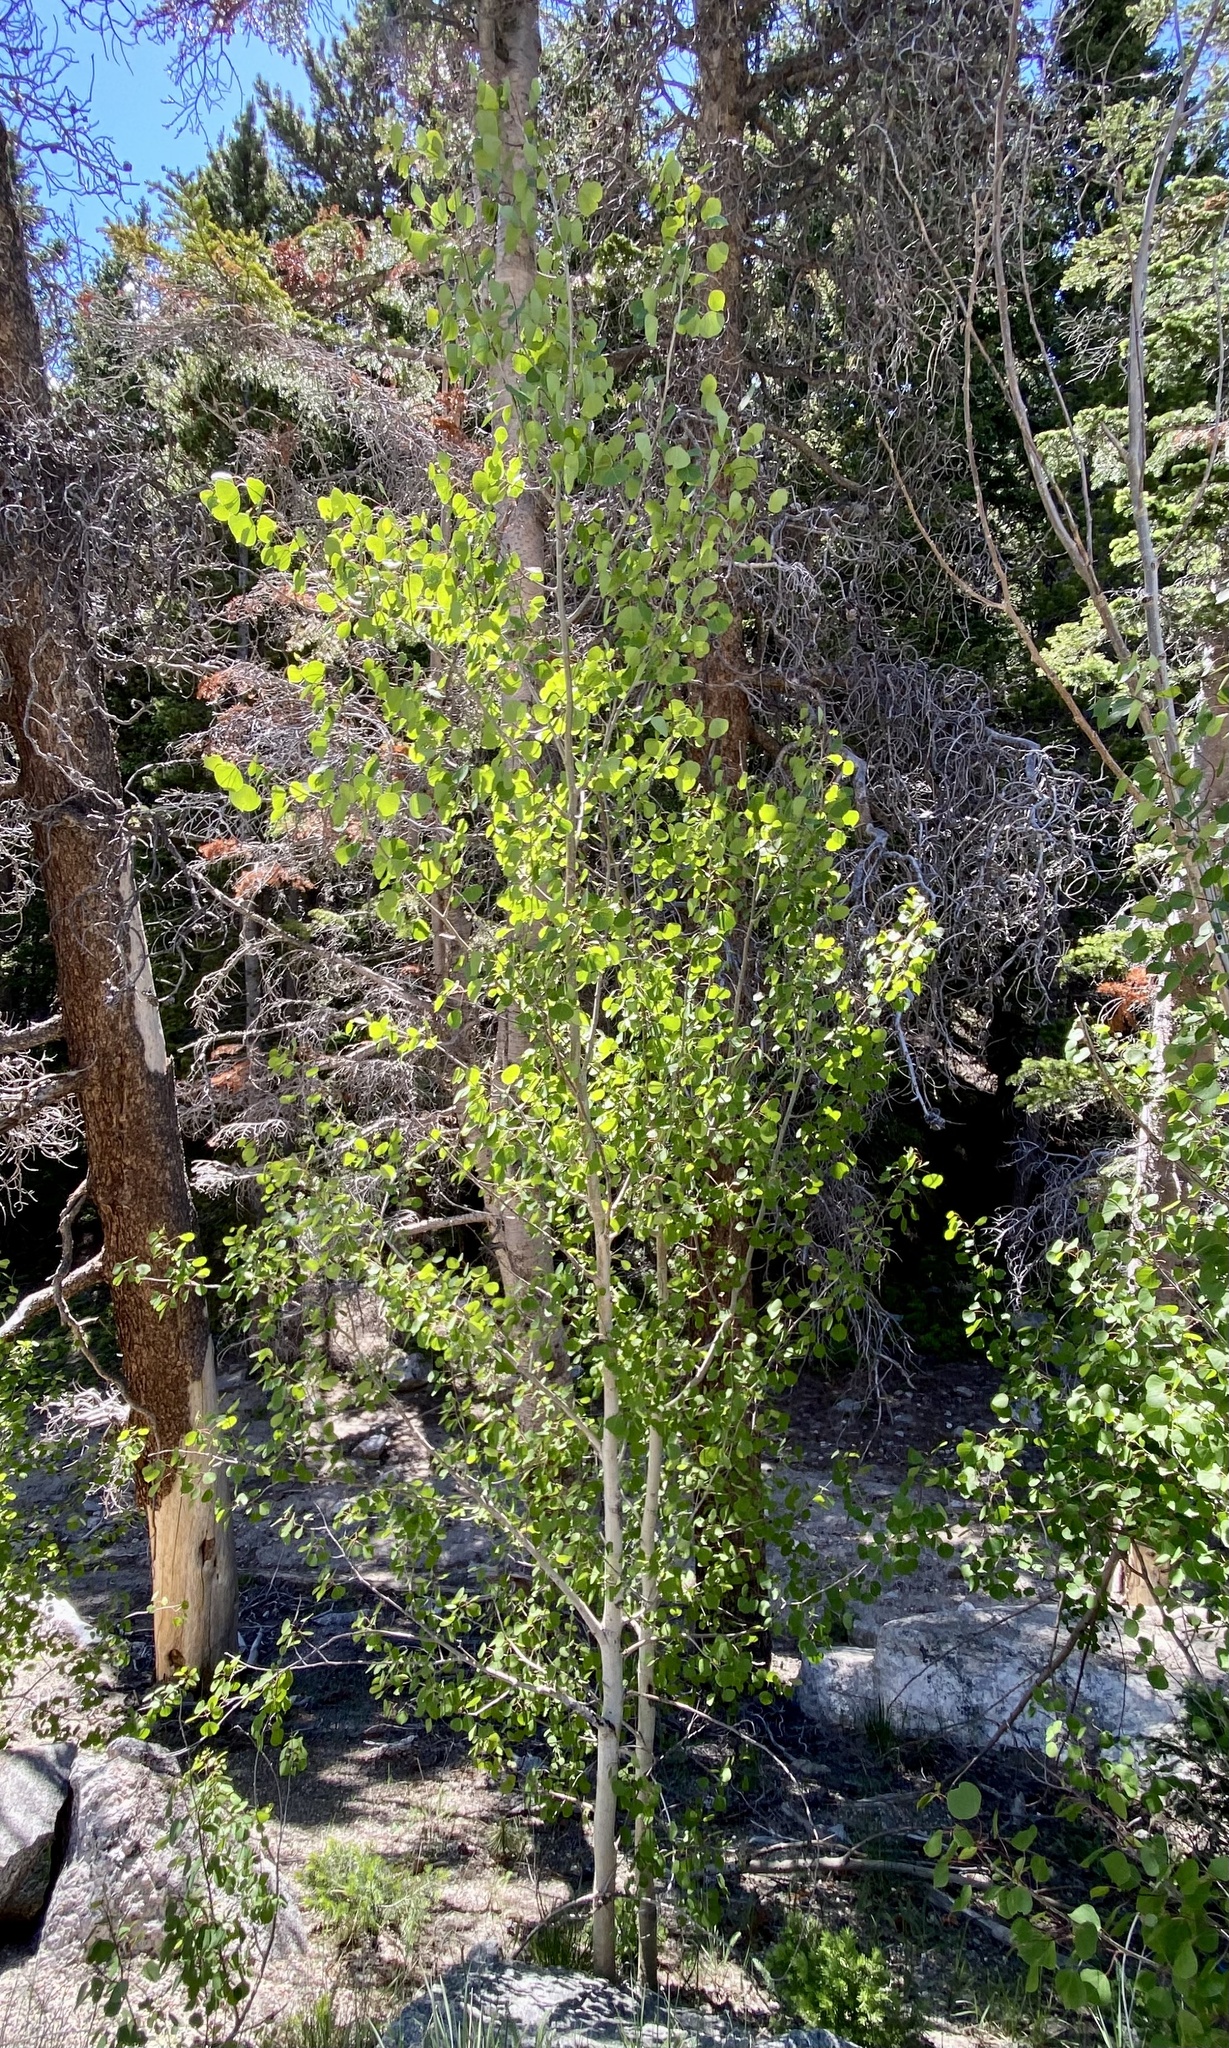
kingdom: Plantae
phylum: Tracheophyta
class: Magnoliopsida
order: Malpighiales
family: Salicaceae
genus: Populus
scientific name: Populus tremuloides
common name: Quaking aspen
